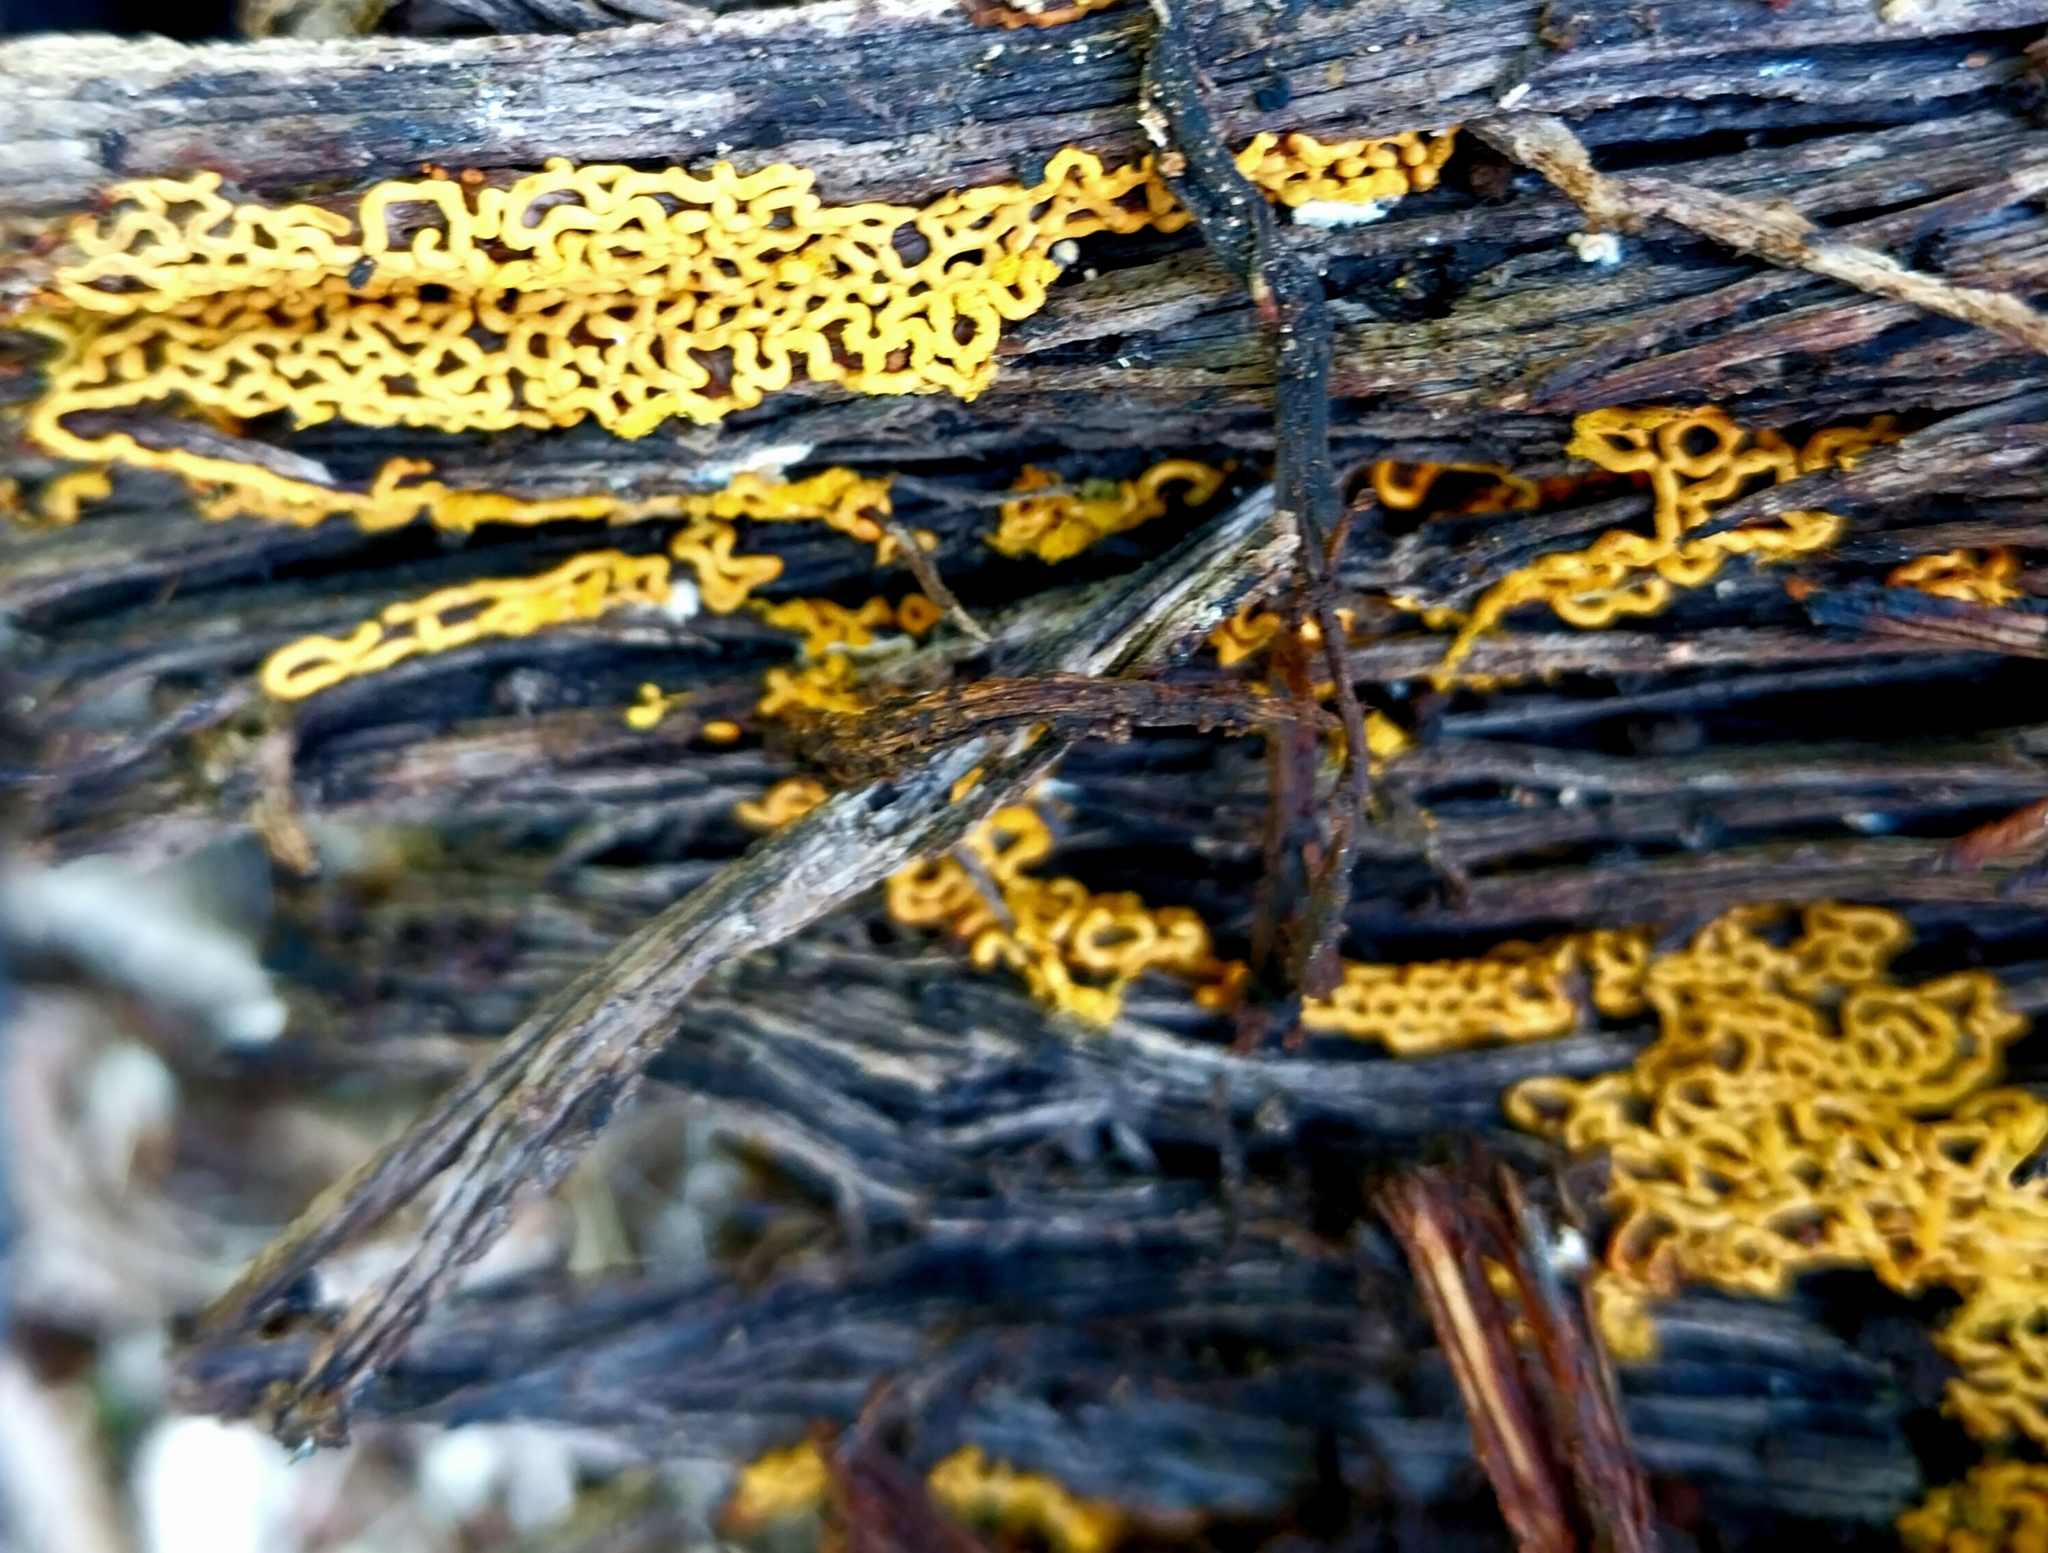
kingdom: Protozoa
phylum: Mycetozoa
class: Myxomycetes
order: Trichiales
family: Arcyriaceae
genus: Hemitrichia
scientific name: Hemitrichia serpula
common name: Pretzel slime mold
